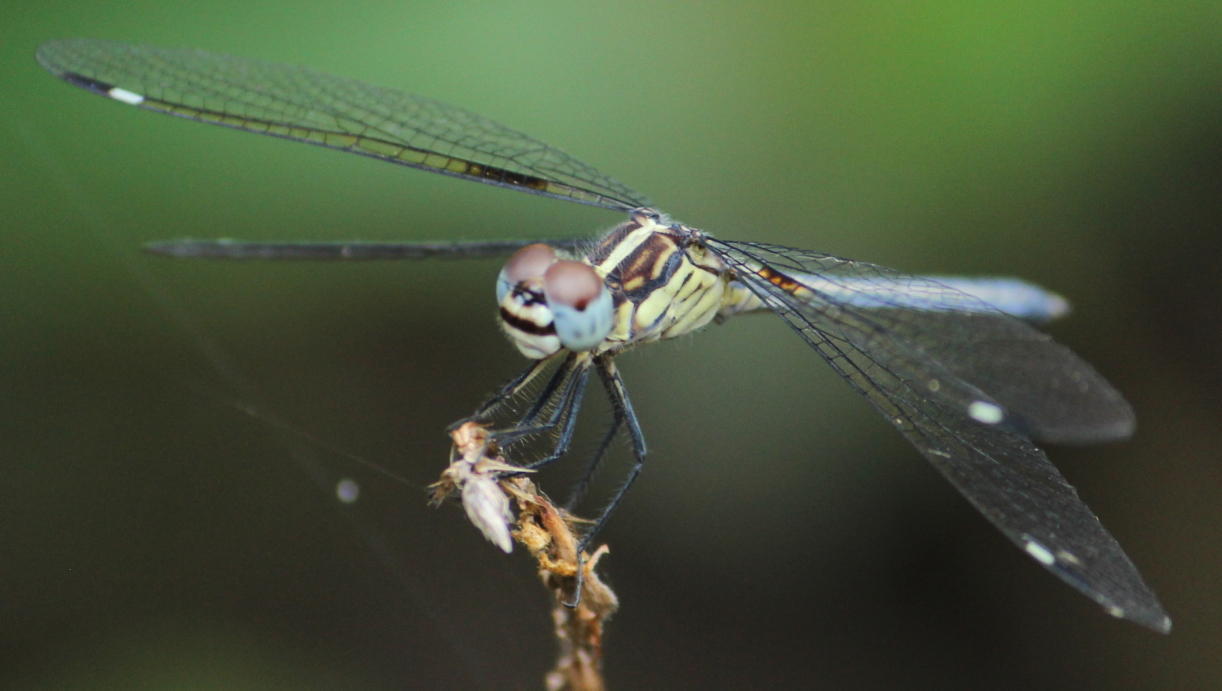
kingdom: Animalia
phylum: Arthropoda
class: Insecta
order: Odonata
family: Libellulidae
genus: Hemistigma
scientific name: Hemistigma albipunctum
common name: African pied-spot
